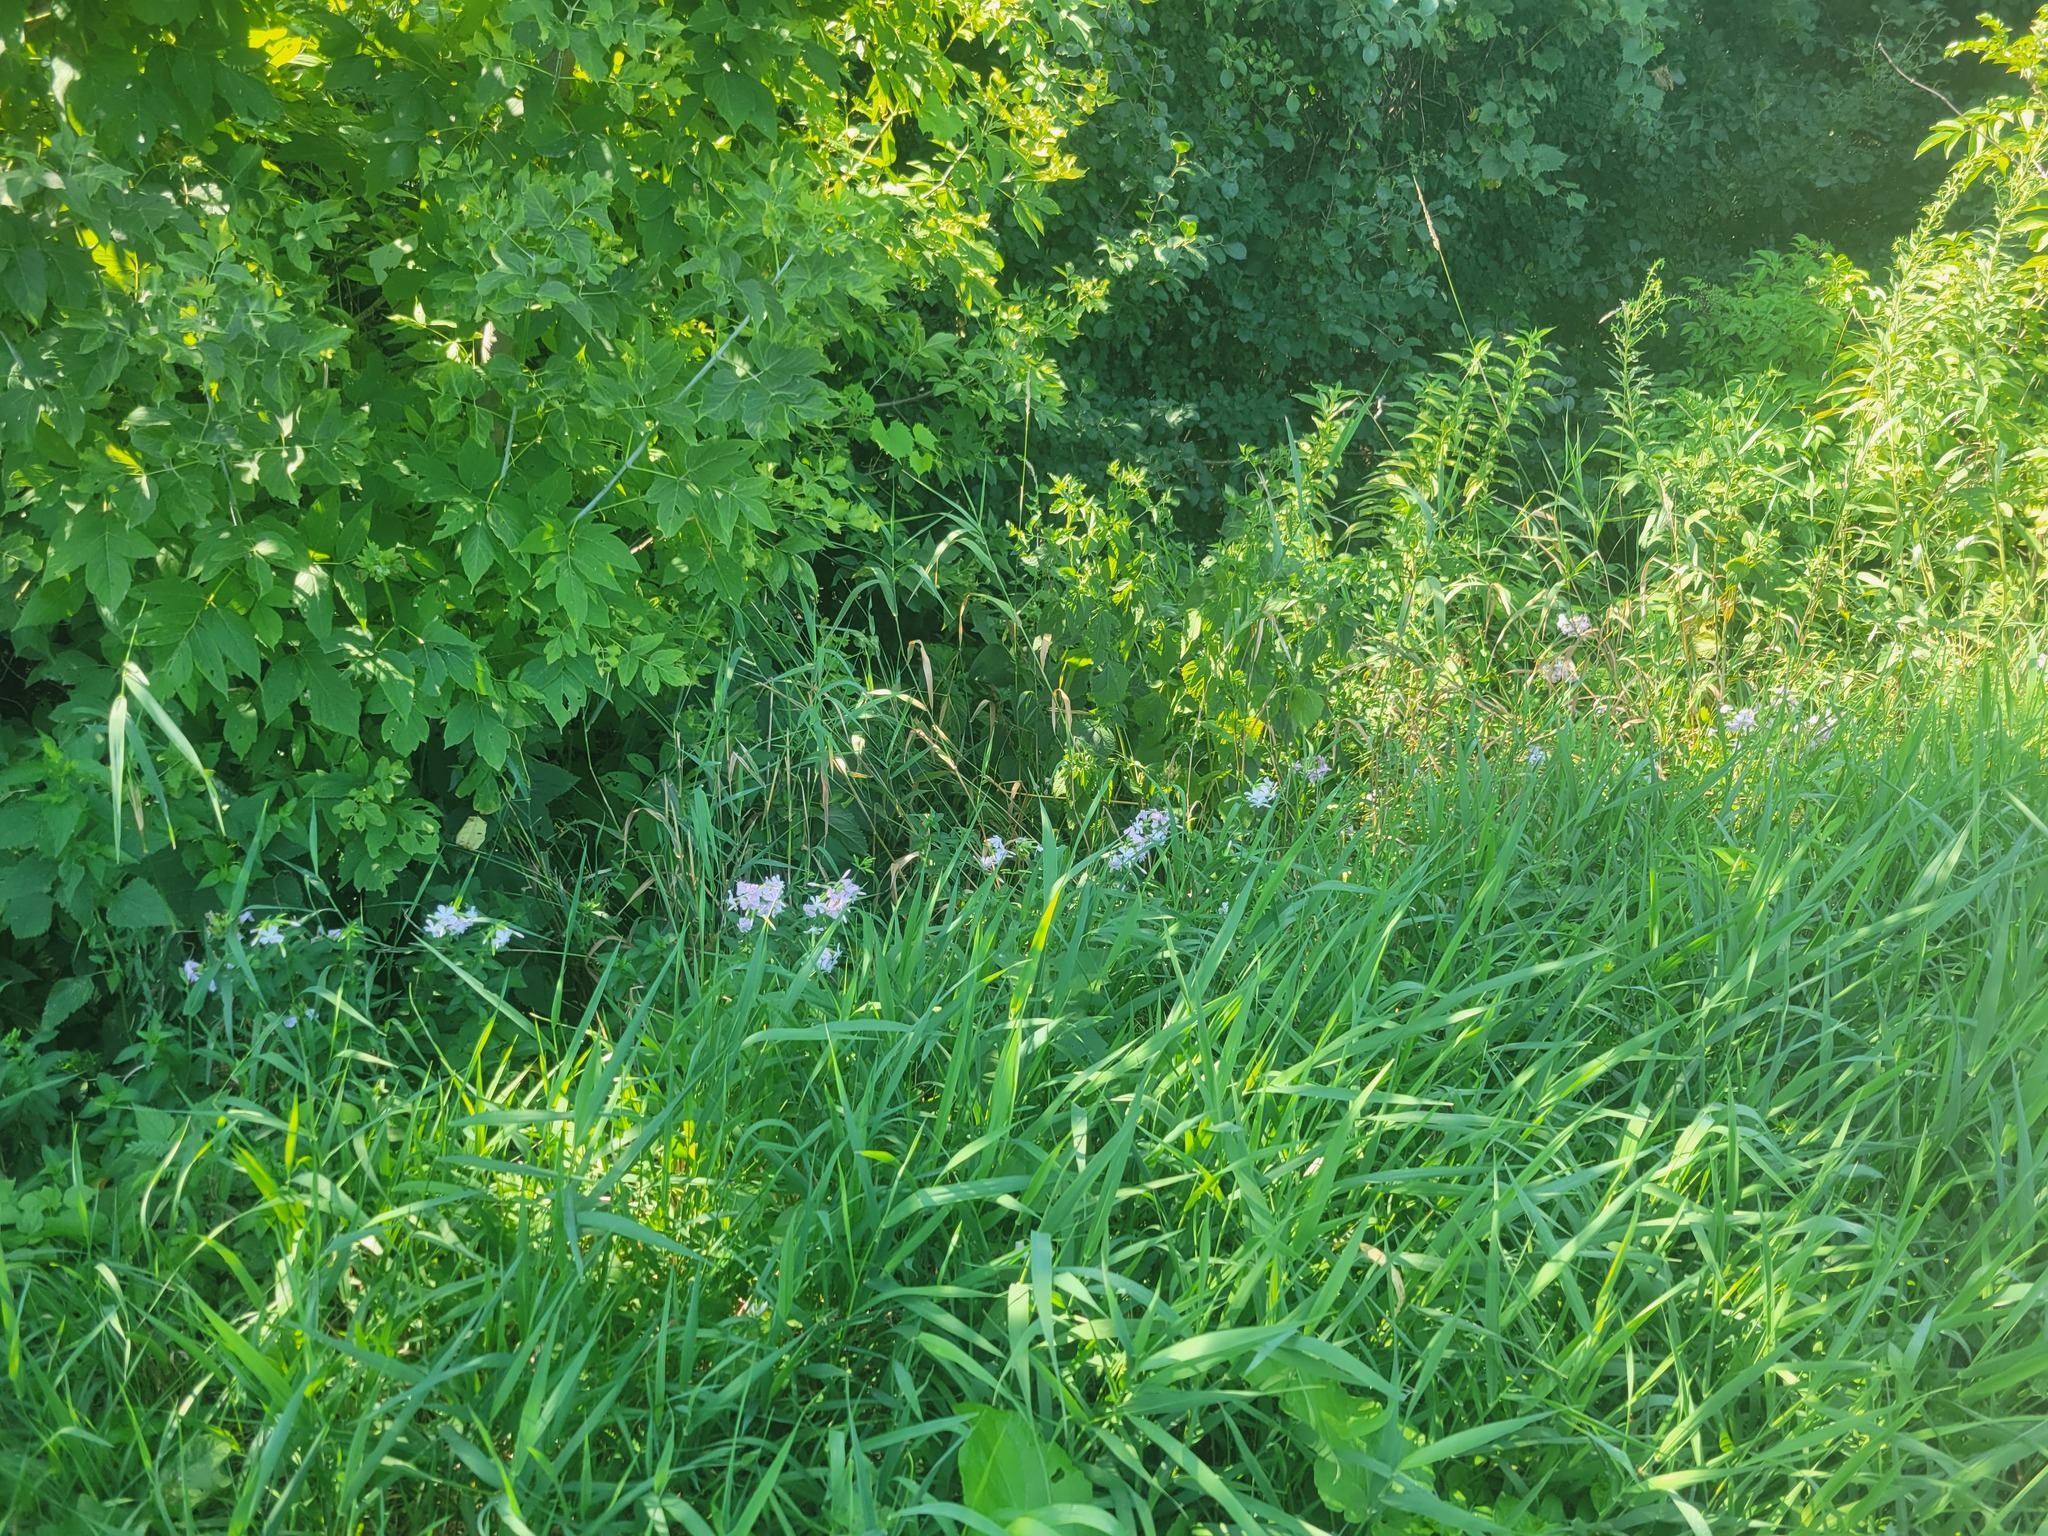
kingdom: Plantae
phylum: Tracheophyta
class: Magnoliopsida
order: Caryophyllales
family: Caryophyllaceae
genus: Saponaria
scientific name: Saponaria officinalis
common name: Soapwort
